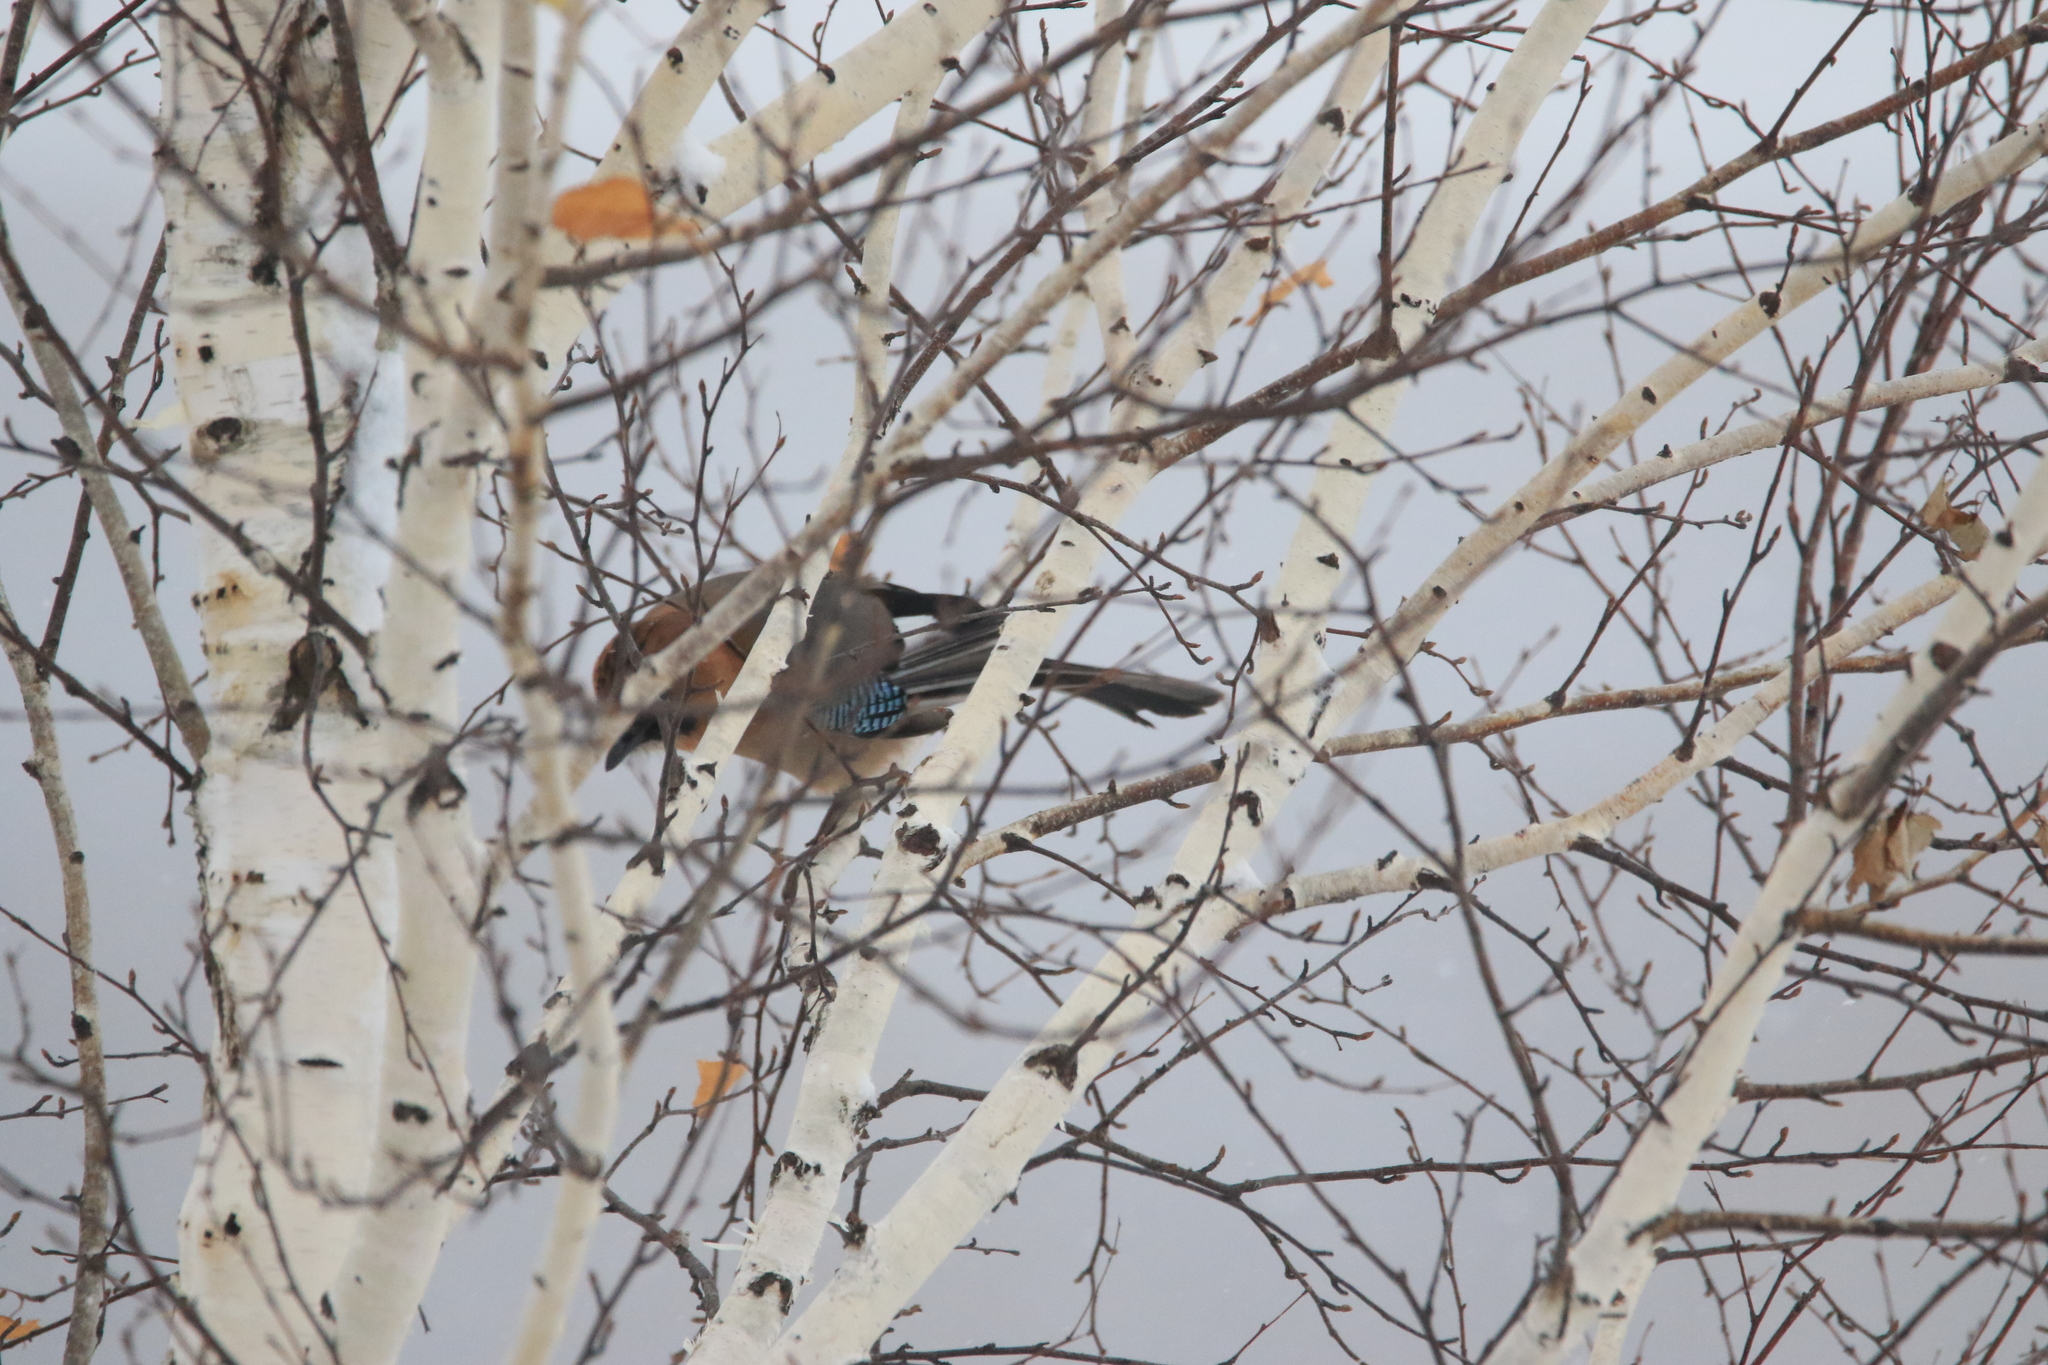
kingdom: Animalia
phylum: Chordata
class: Aves
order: Passeriformes
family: Corvidae
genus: Garrulus
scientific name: Garrulus glandarius
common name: Eurasian jay
